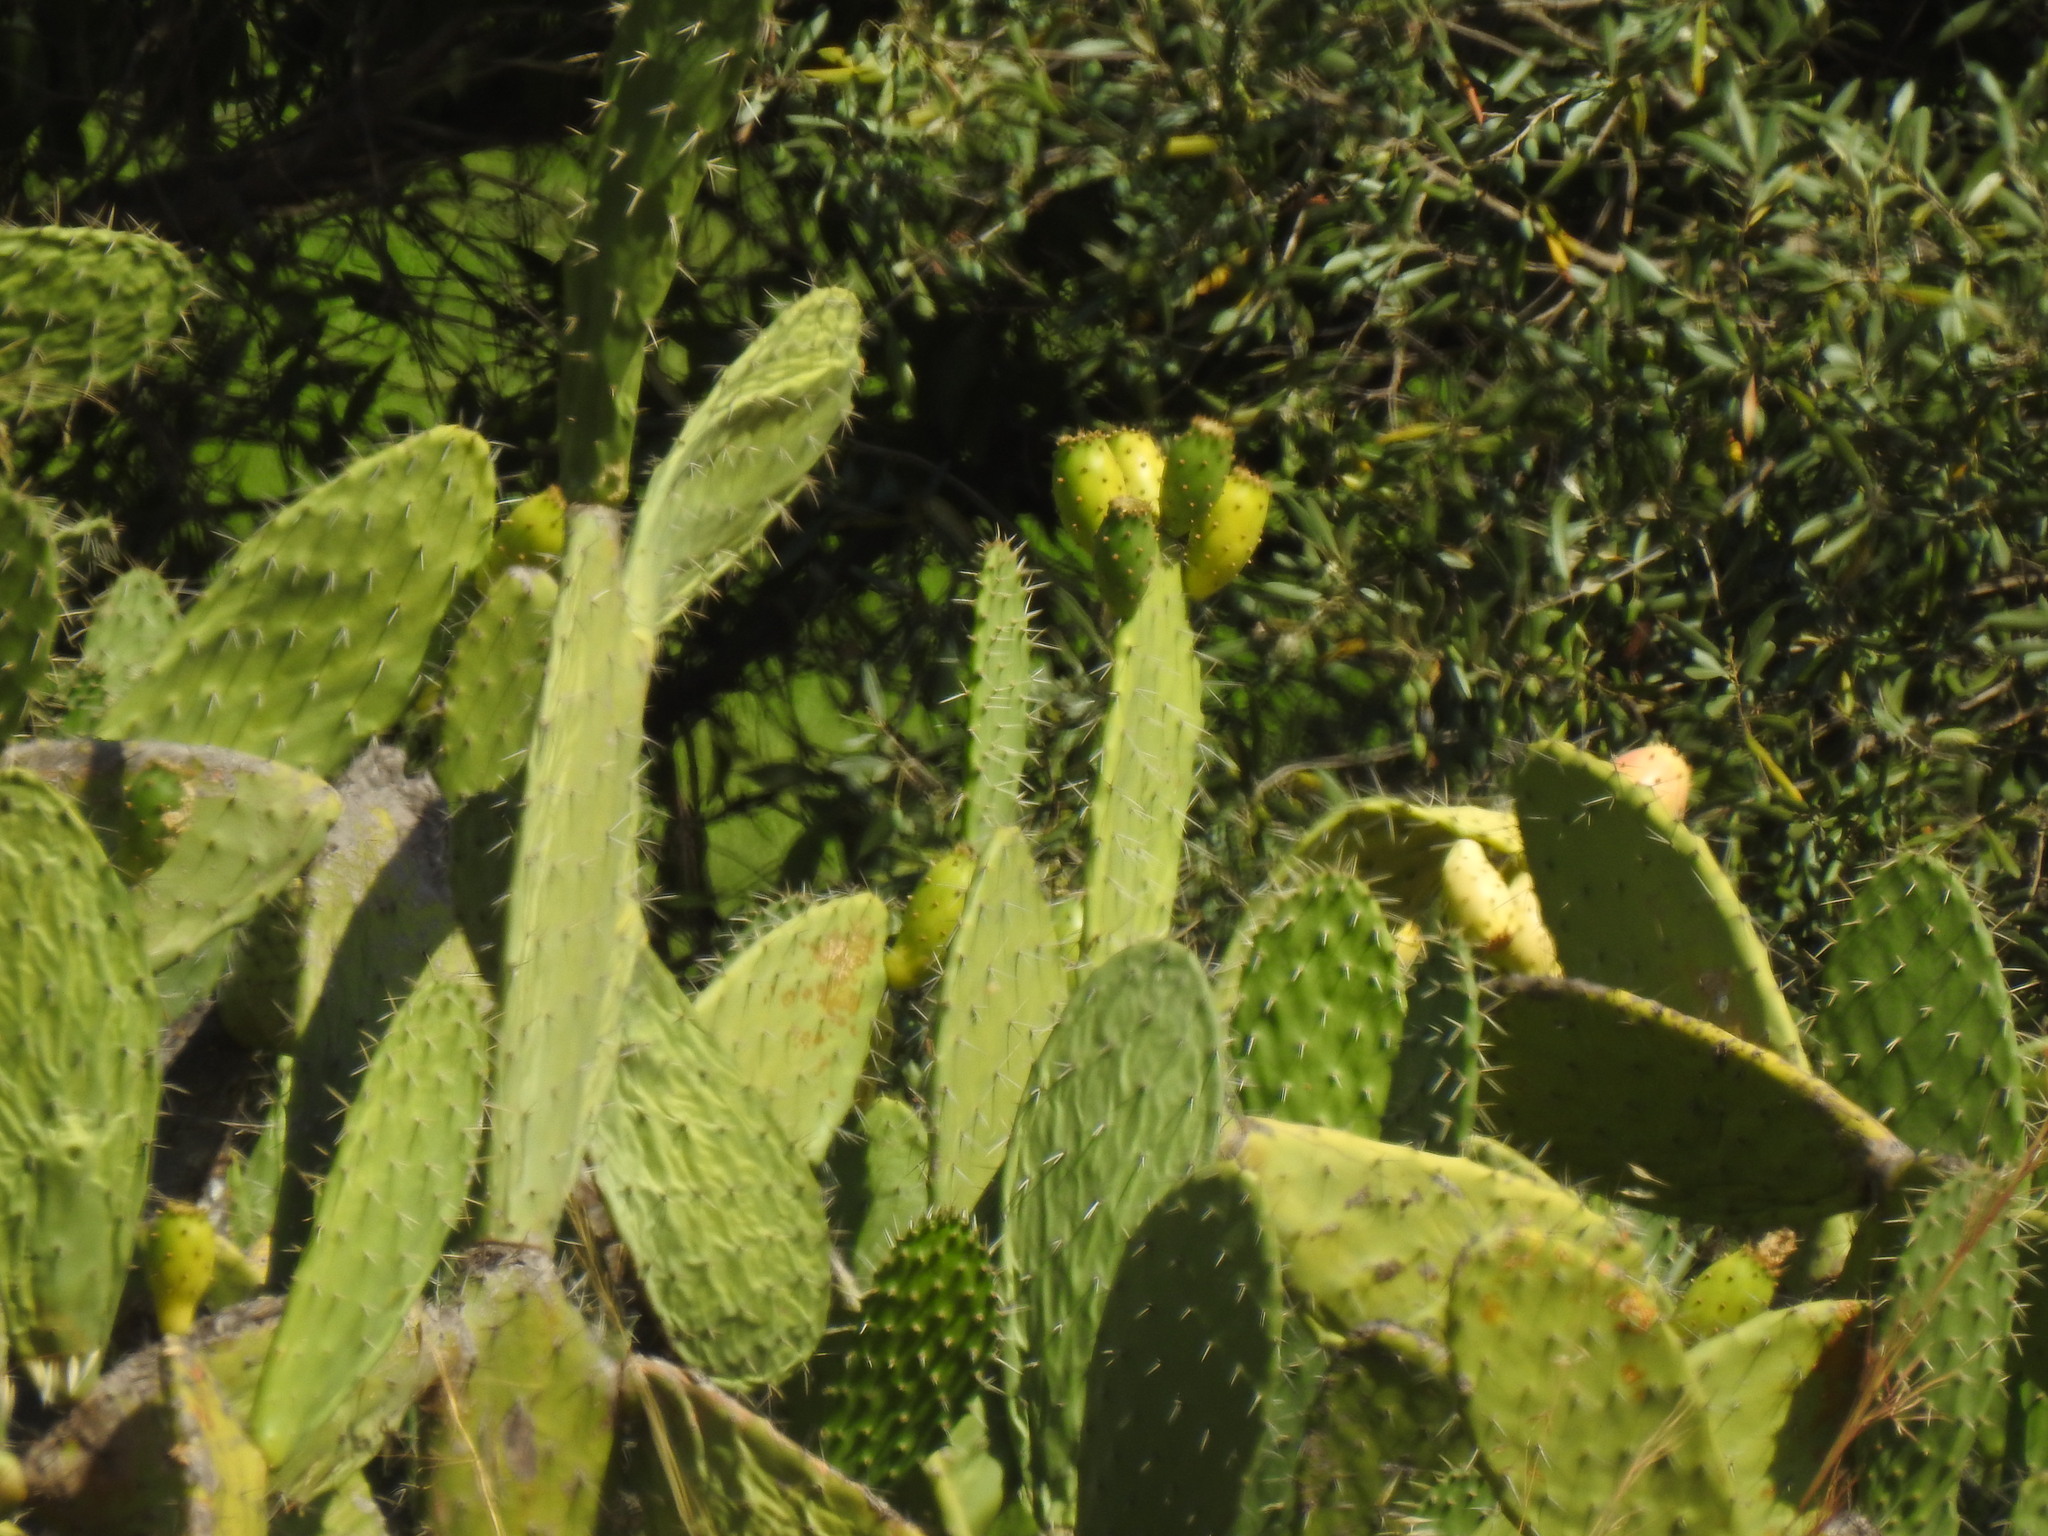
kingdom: Plantae
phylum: Tracheophyta
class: Magnoliopsida
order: Caryophyllales
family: Cactaceae
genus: Opuntia
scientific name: Opuntia ficus-indica
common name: Barbary fig
